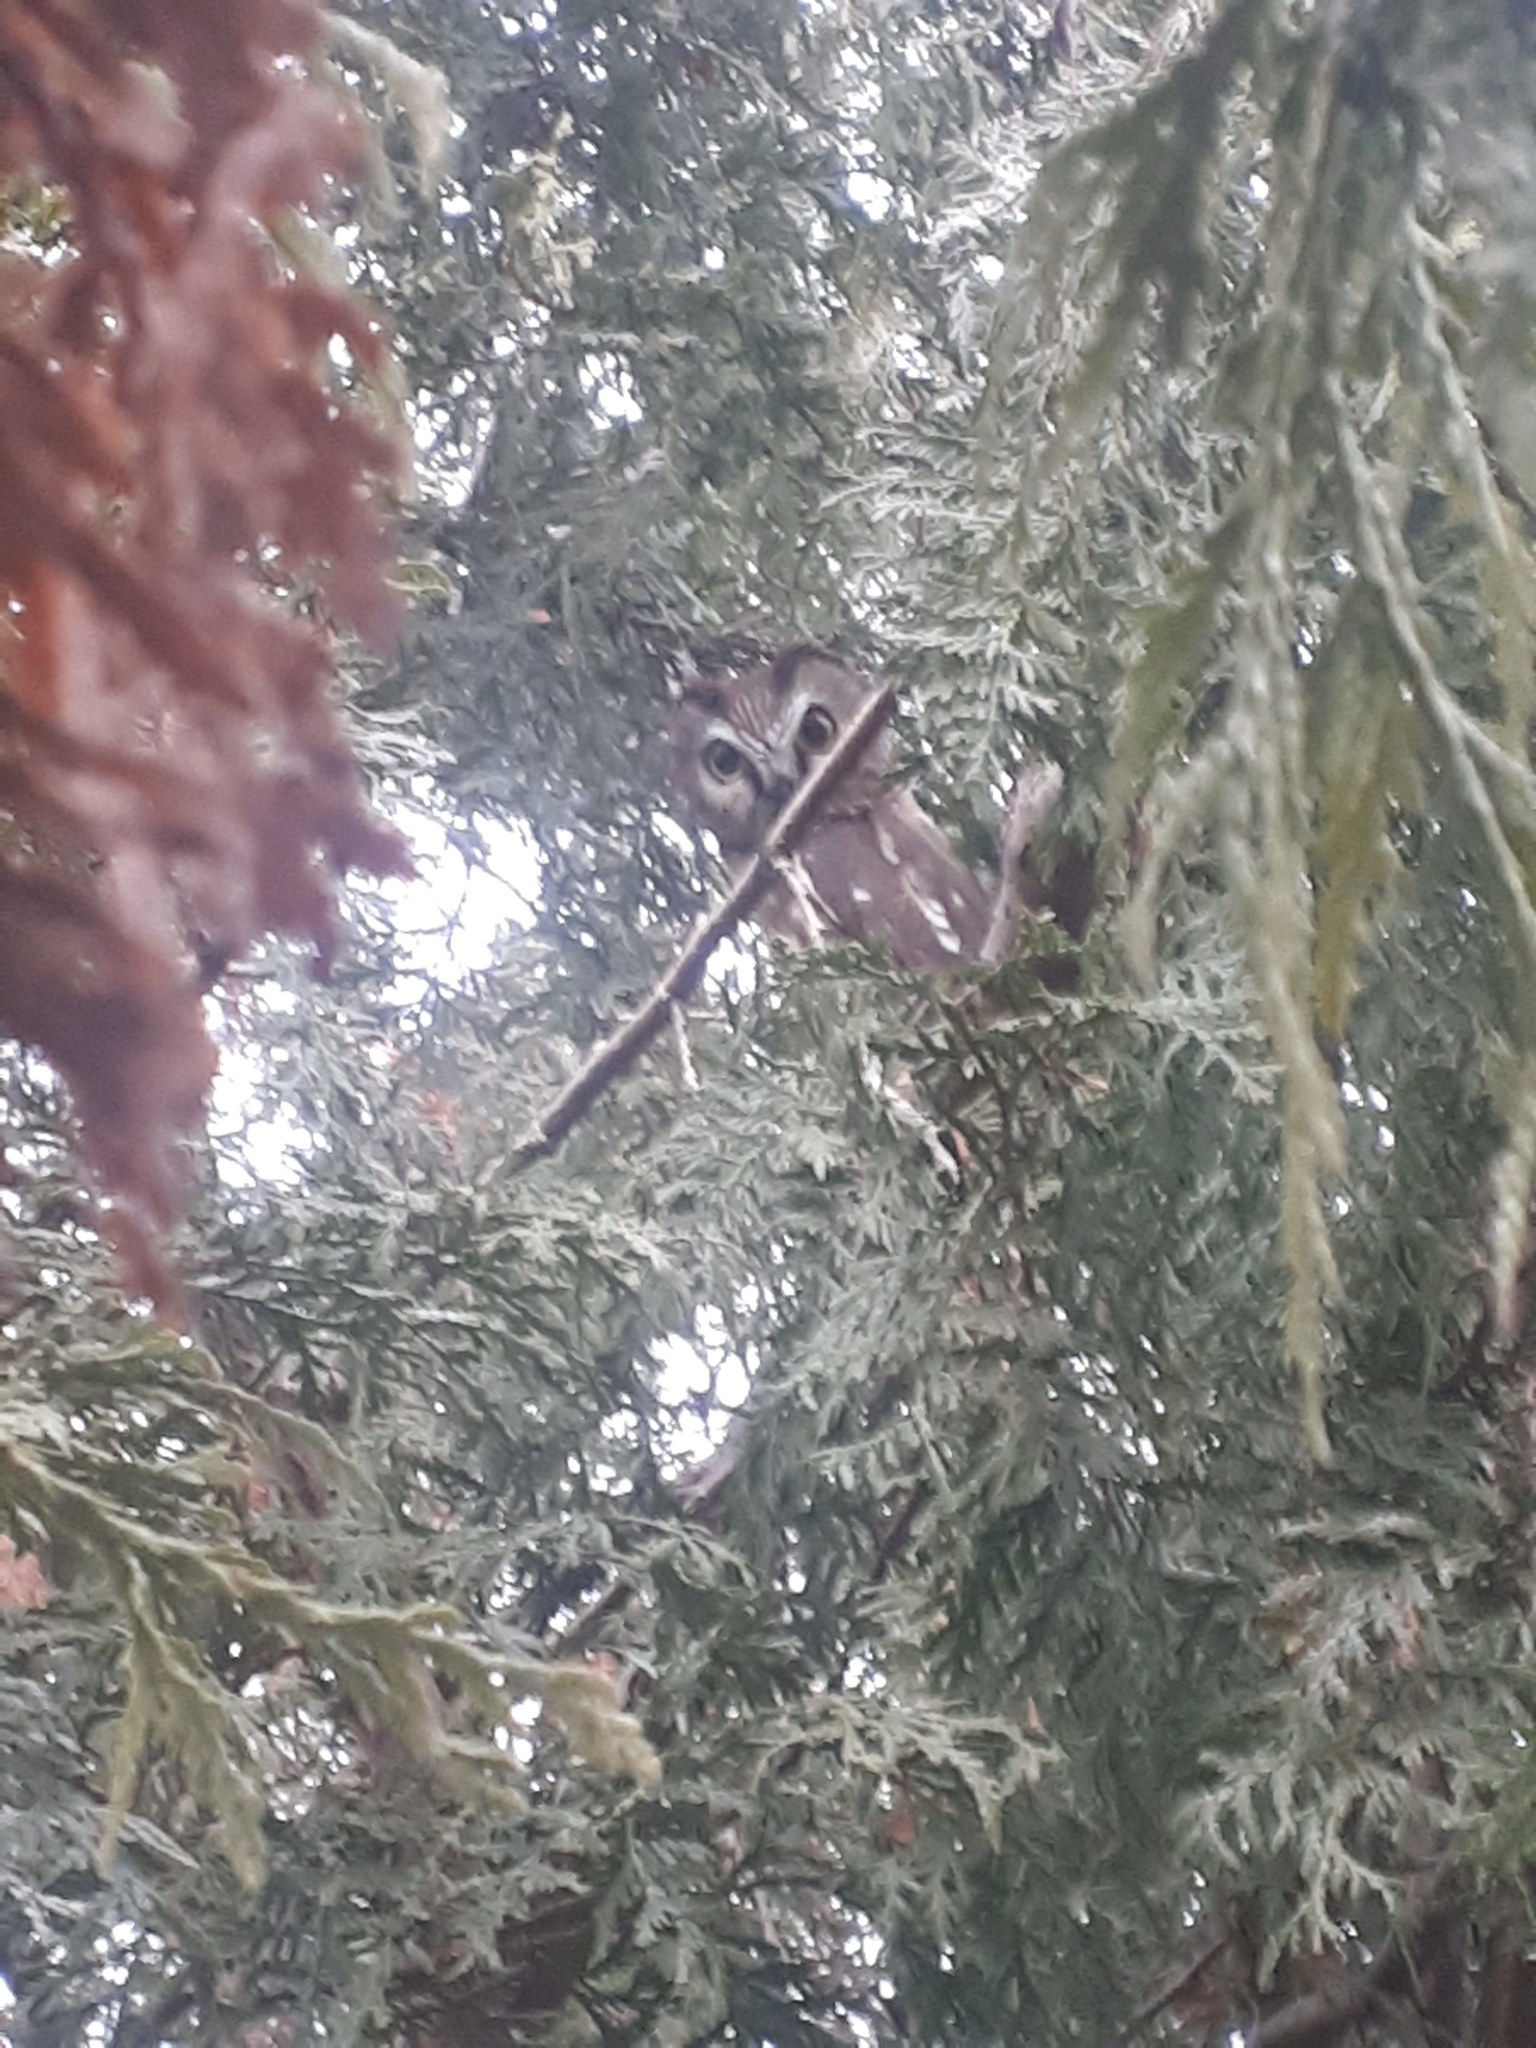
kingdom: Plantae
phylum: Tracheophyta
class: Pinopsida
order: Pinales
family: Cupressaceae
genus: Thuja
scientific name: Thuja occidentalis
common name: Northern white-cedar
